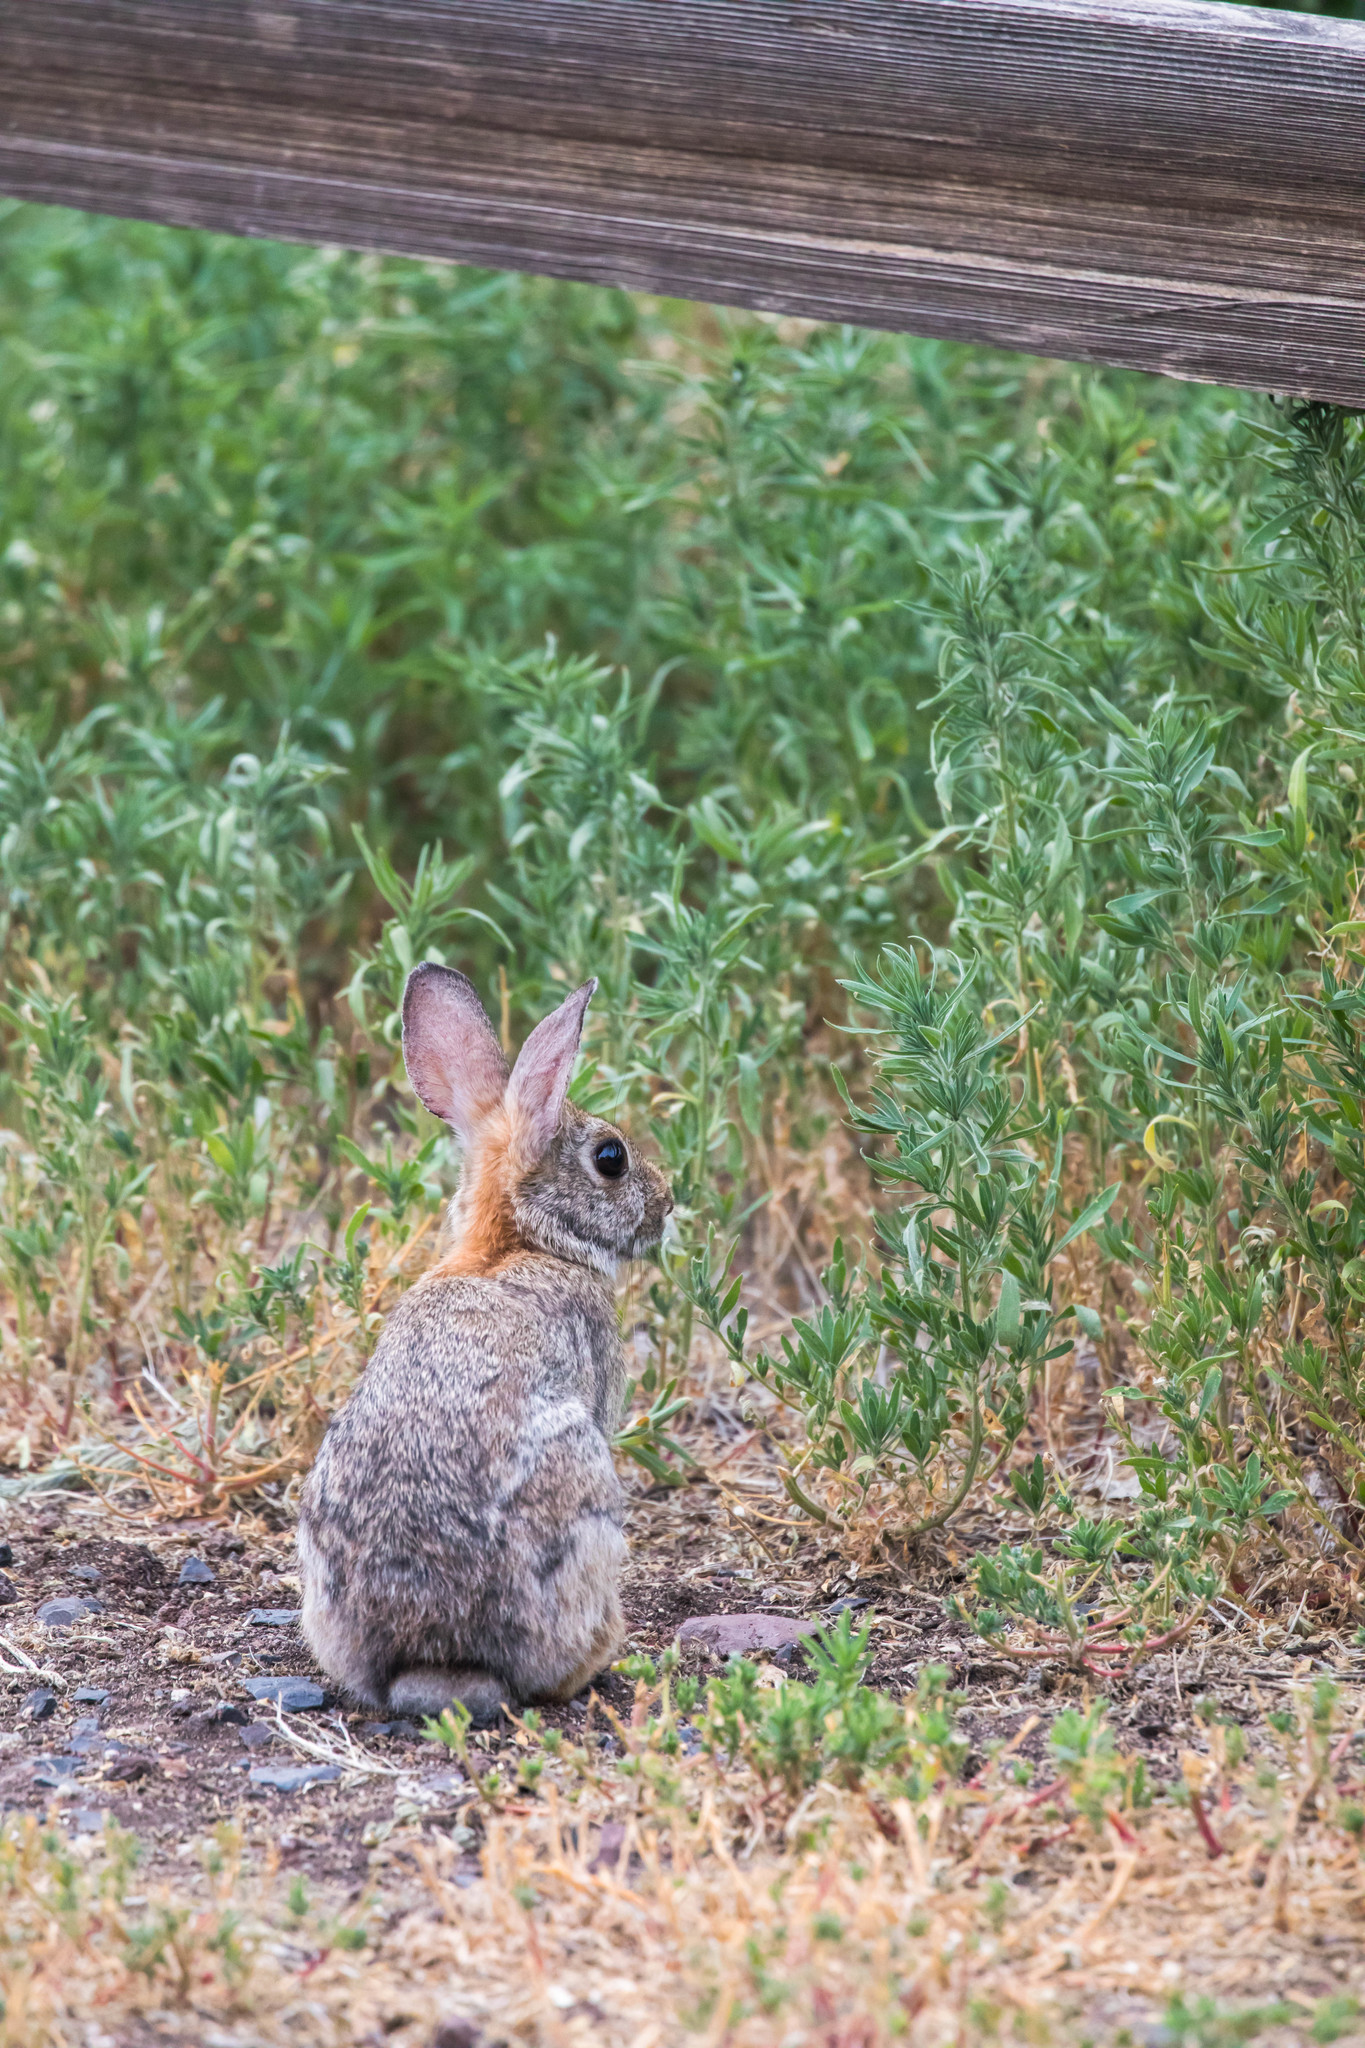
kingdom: Animalia
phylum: Chordata
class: Mammalia
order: Lagomorpha
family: Leporidae
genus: Sylvilagus
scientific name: Sylvilagus nuttallii
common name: Mountain cottontail
